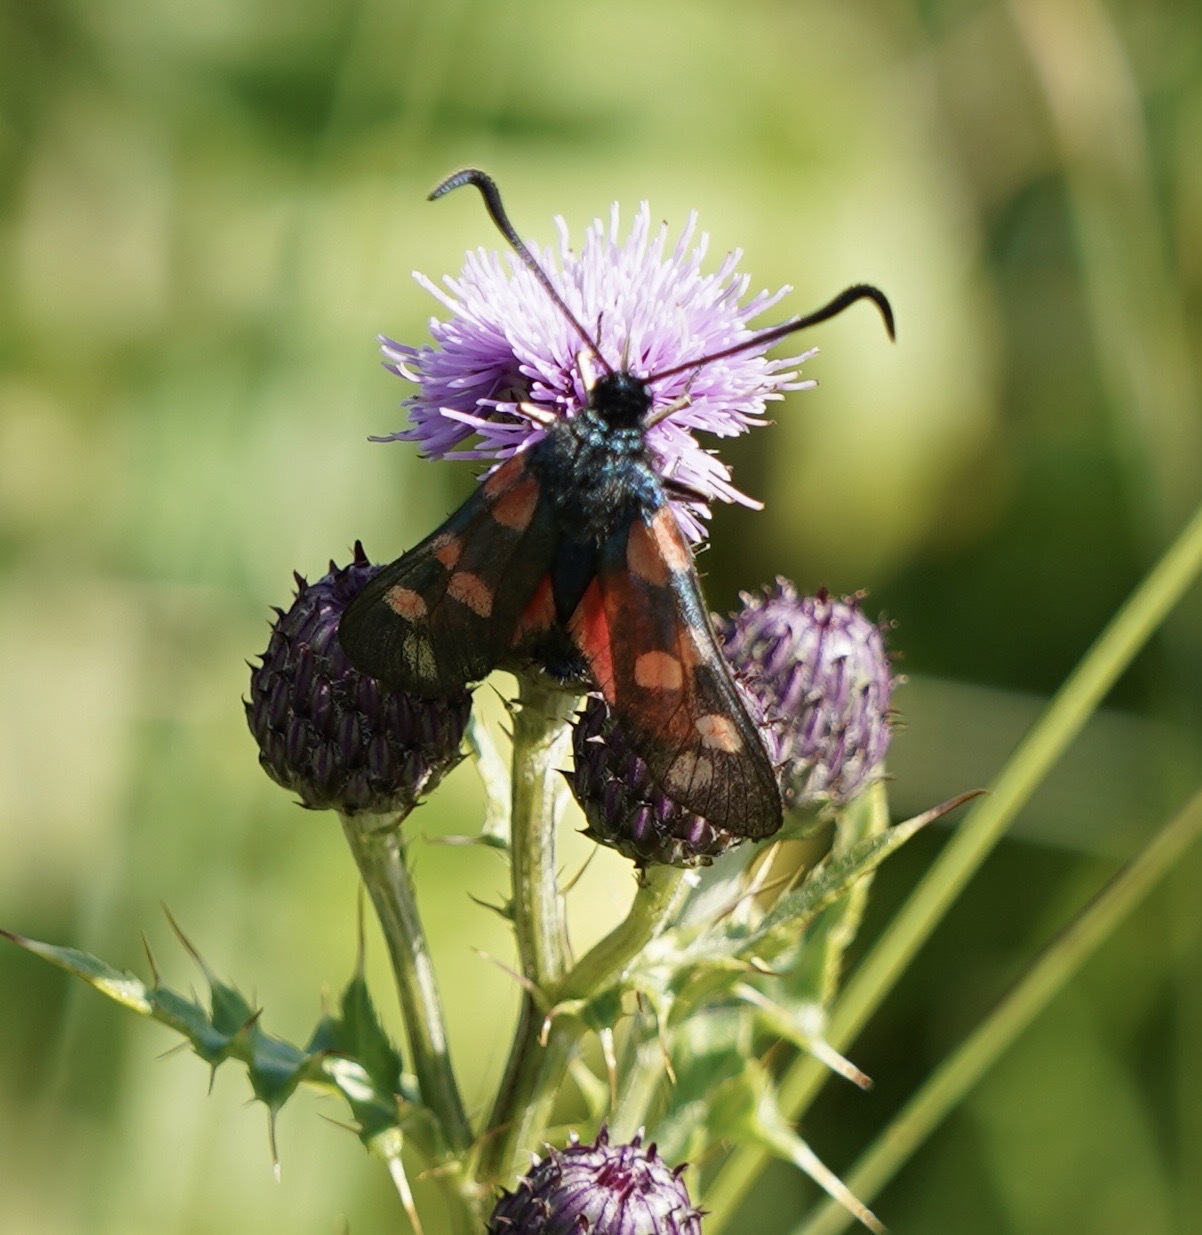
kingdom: Animalia
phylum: Arthropoda
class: Insecta
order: Lepidoptera
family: Zygaenidae
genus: Zygaena
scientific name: Zygaena filipendulae
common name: Six-spot burnet
